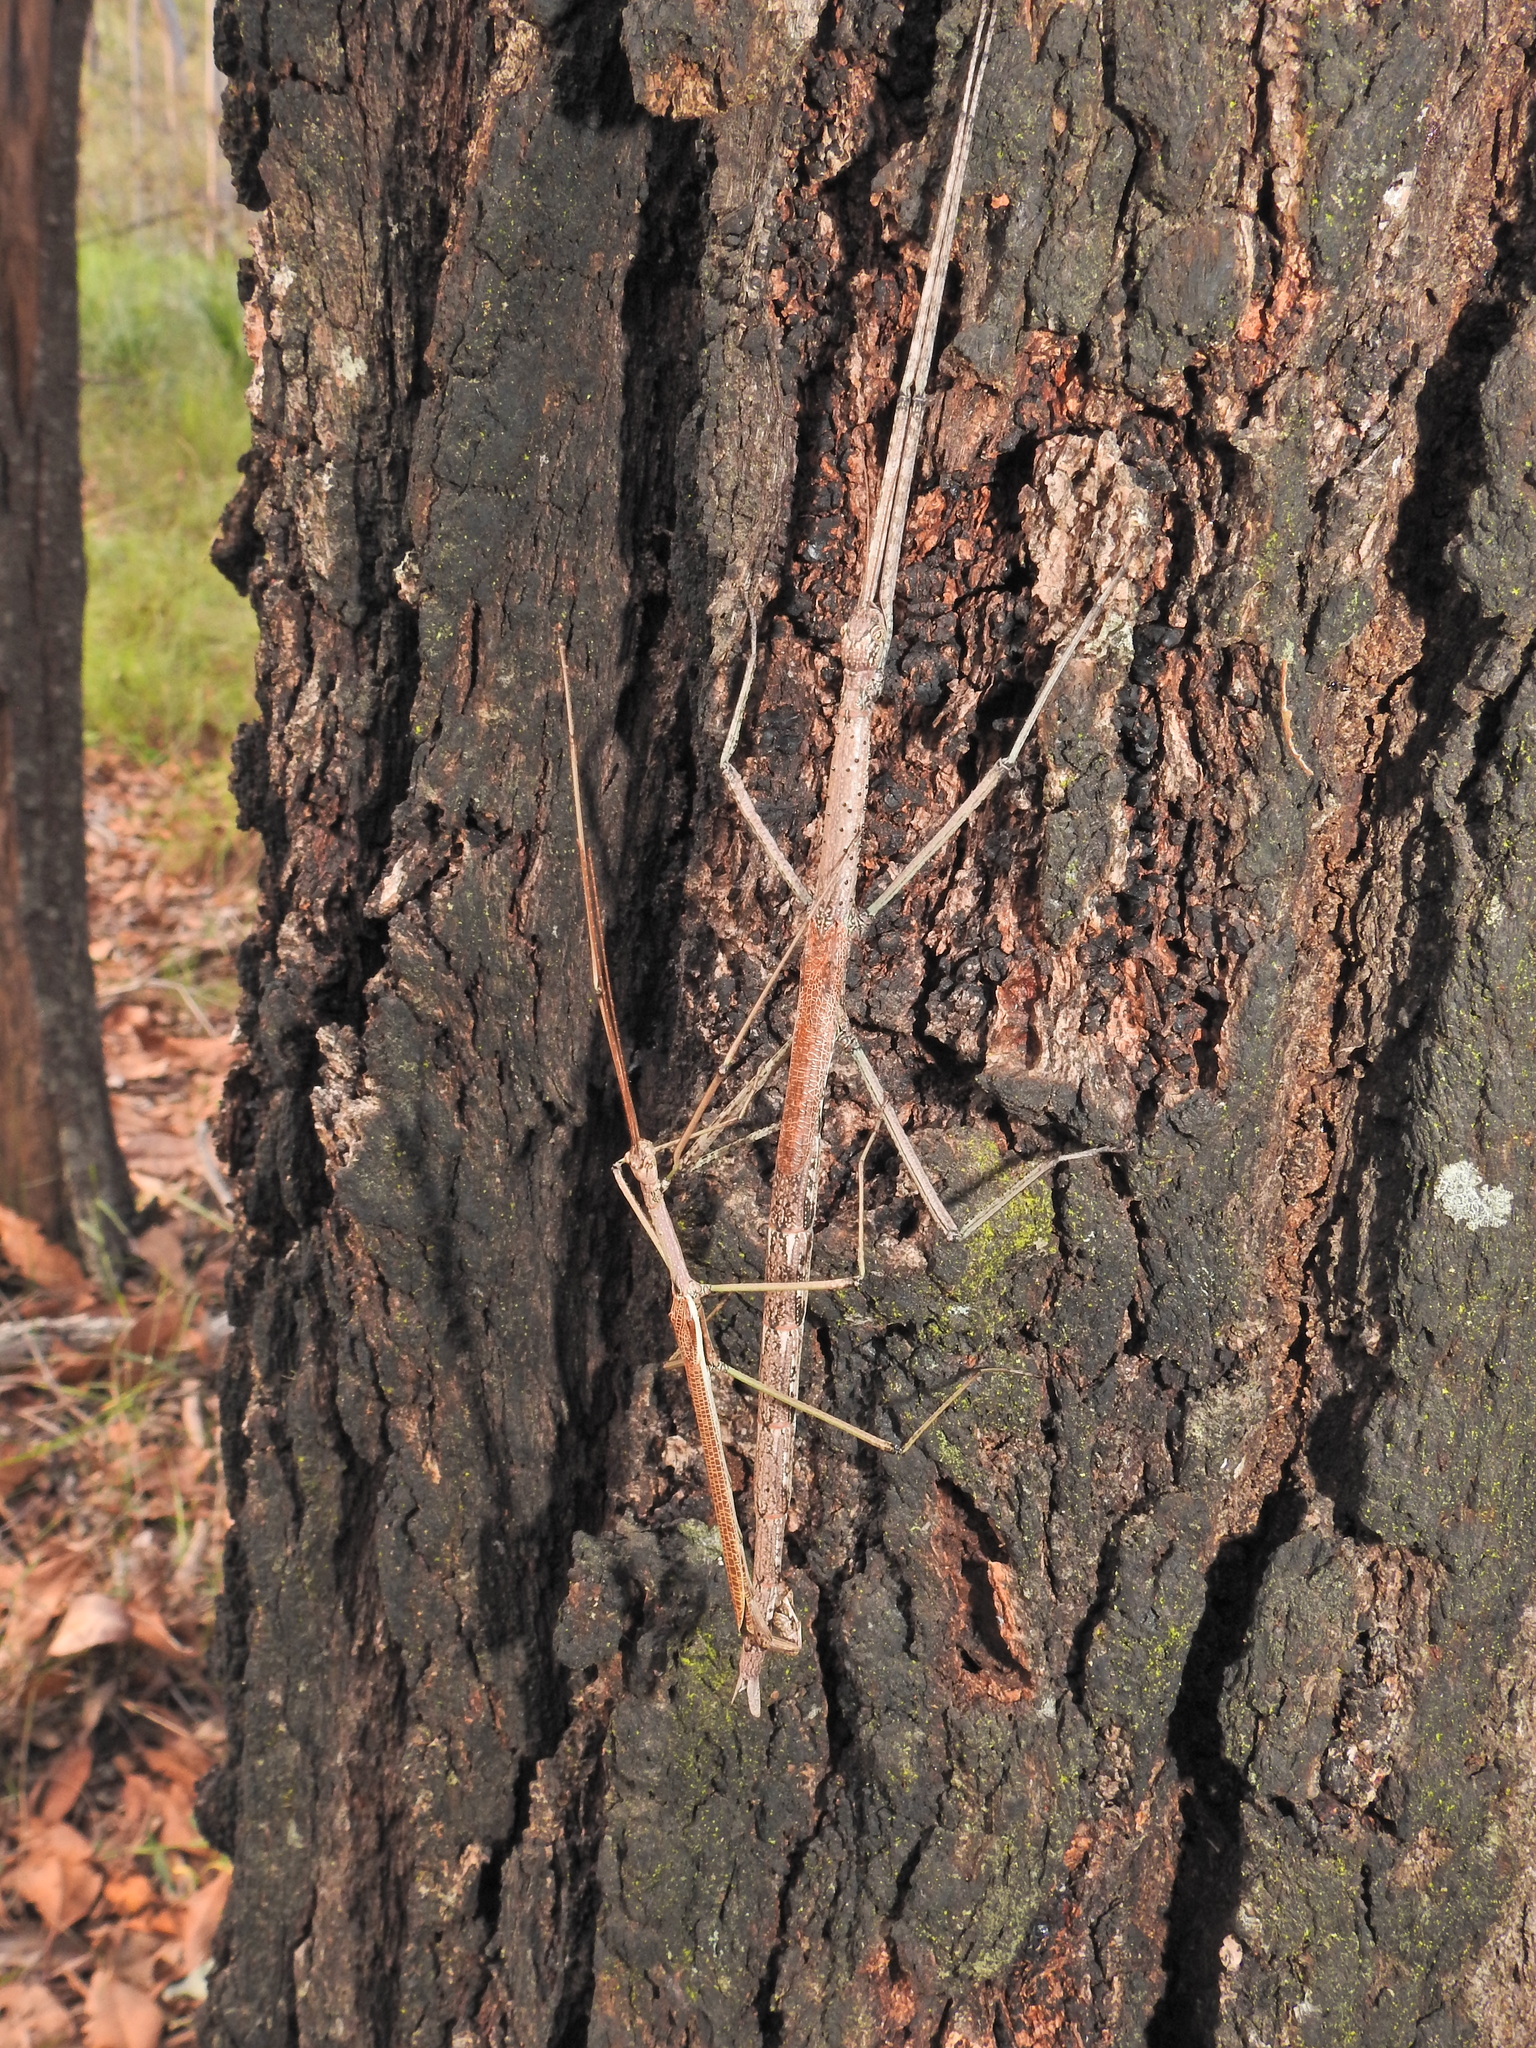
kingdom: Animalia
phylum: Arthropoda
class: Insecta
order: Phasmida
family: Phasmatidae
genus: Anchiale
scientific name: Anchiale austrotessulata
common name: Tessellated stick-insect
